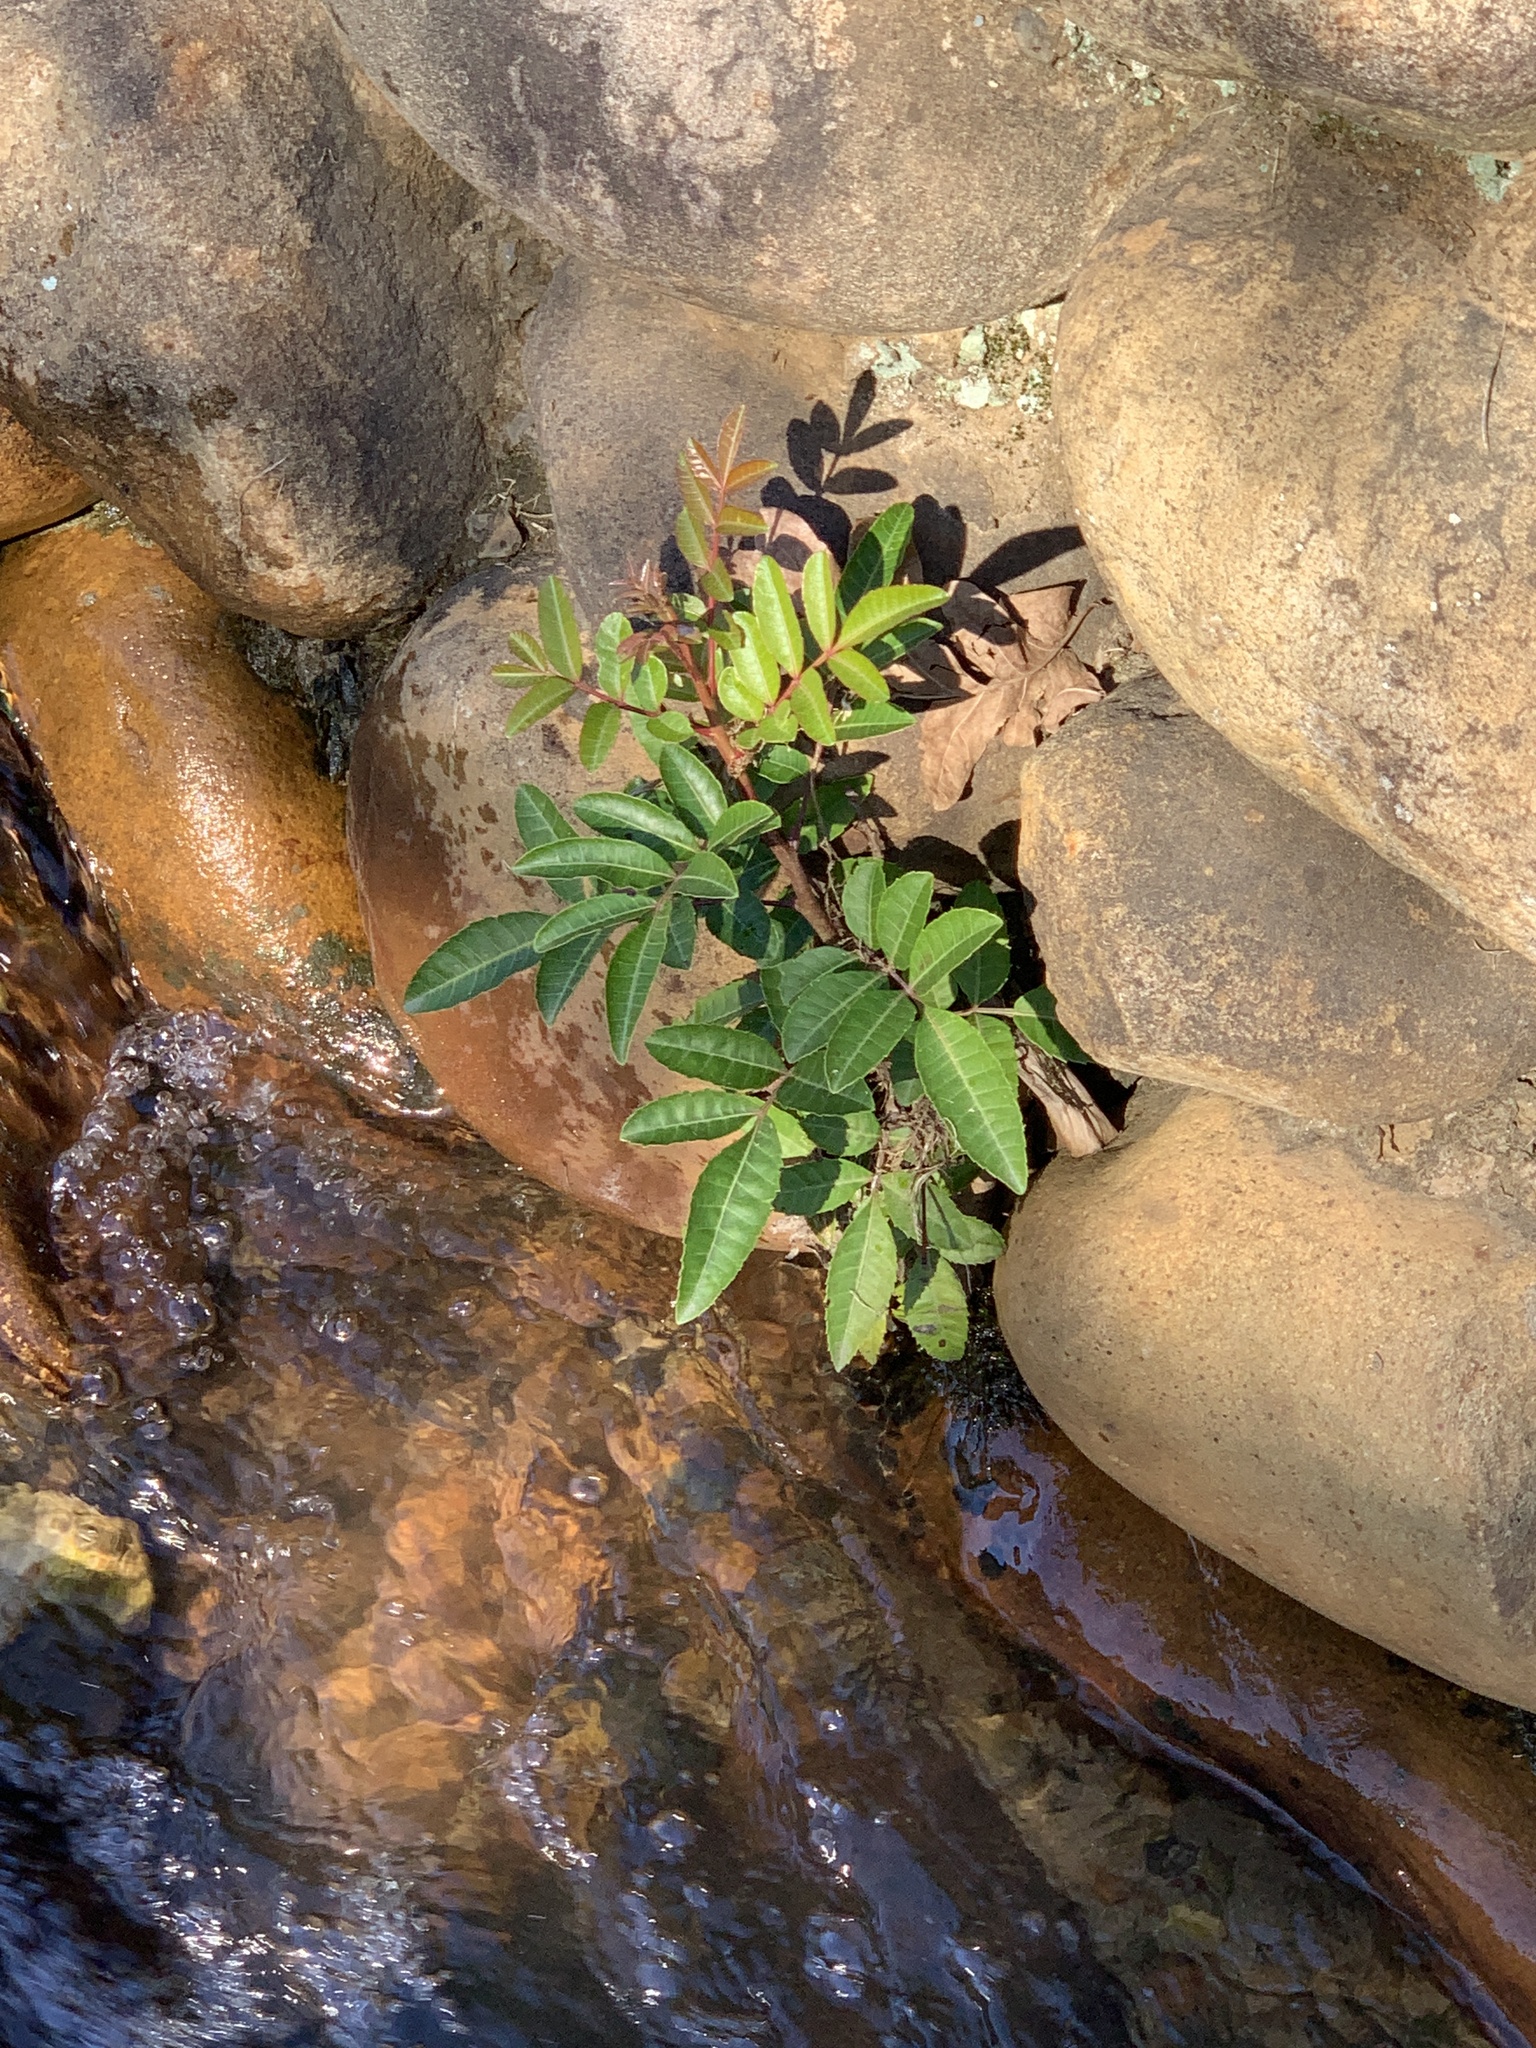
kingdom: Plantae
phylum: Tracheophyta
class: Magnoliopsida
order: Sapindales
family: Anacardiaceae
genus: Schinus
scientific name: Schinus terebinthifolia
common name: Brazilian peppertree
